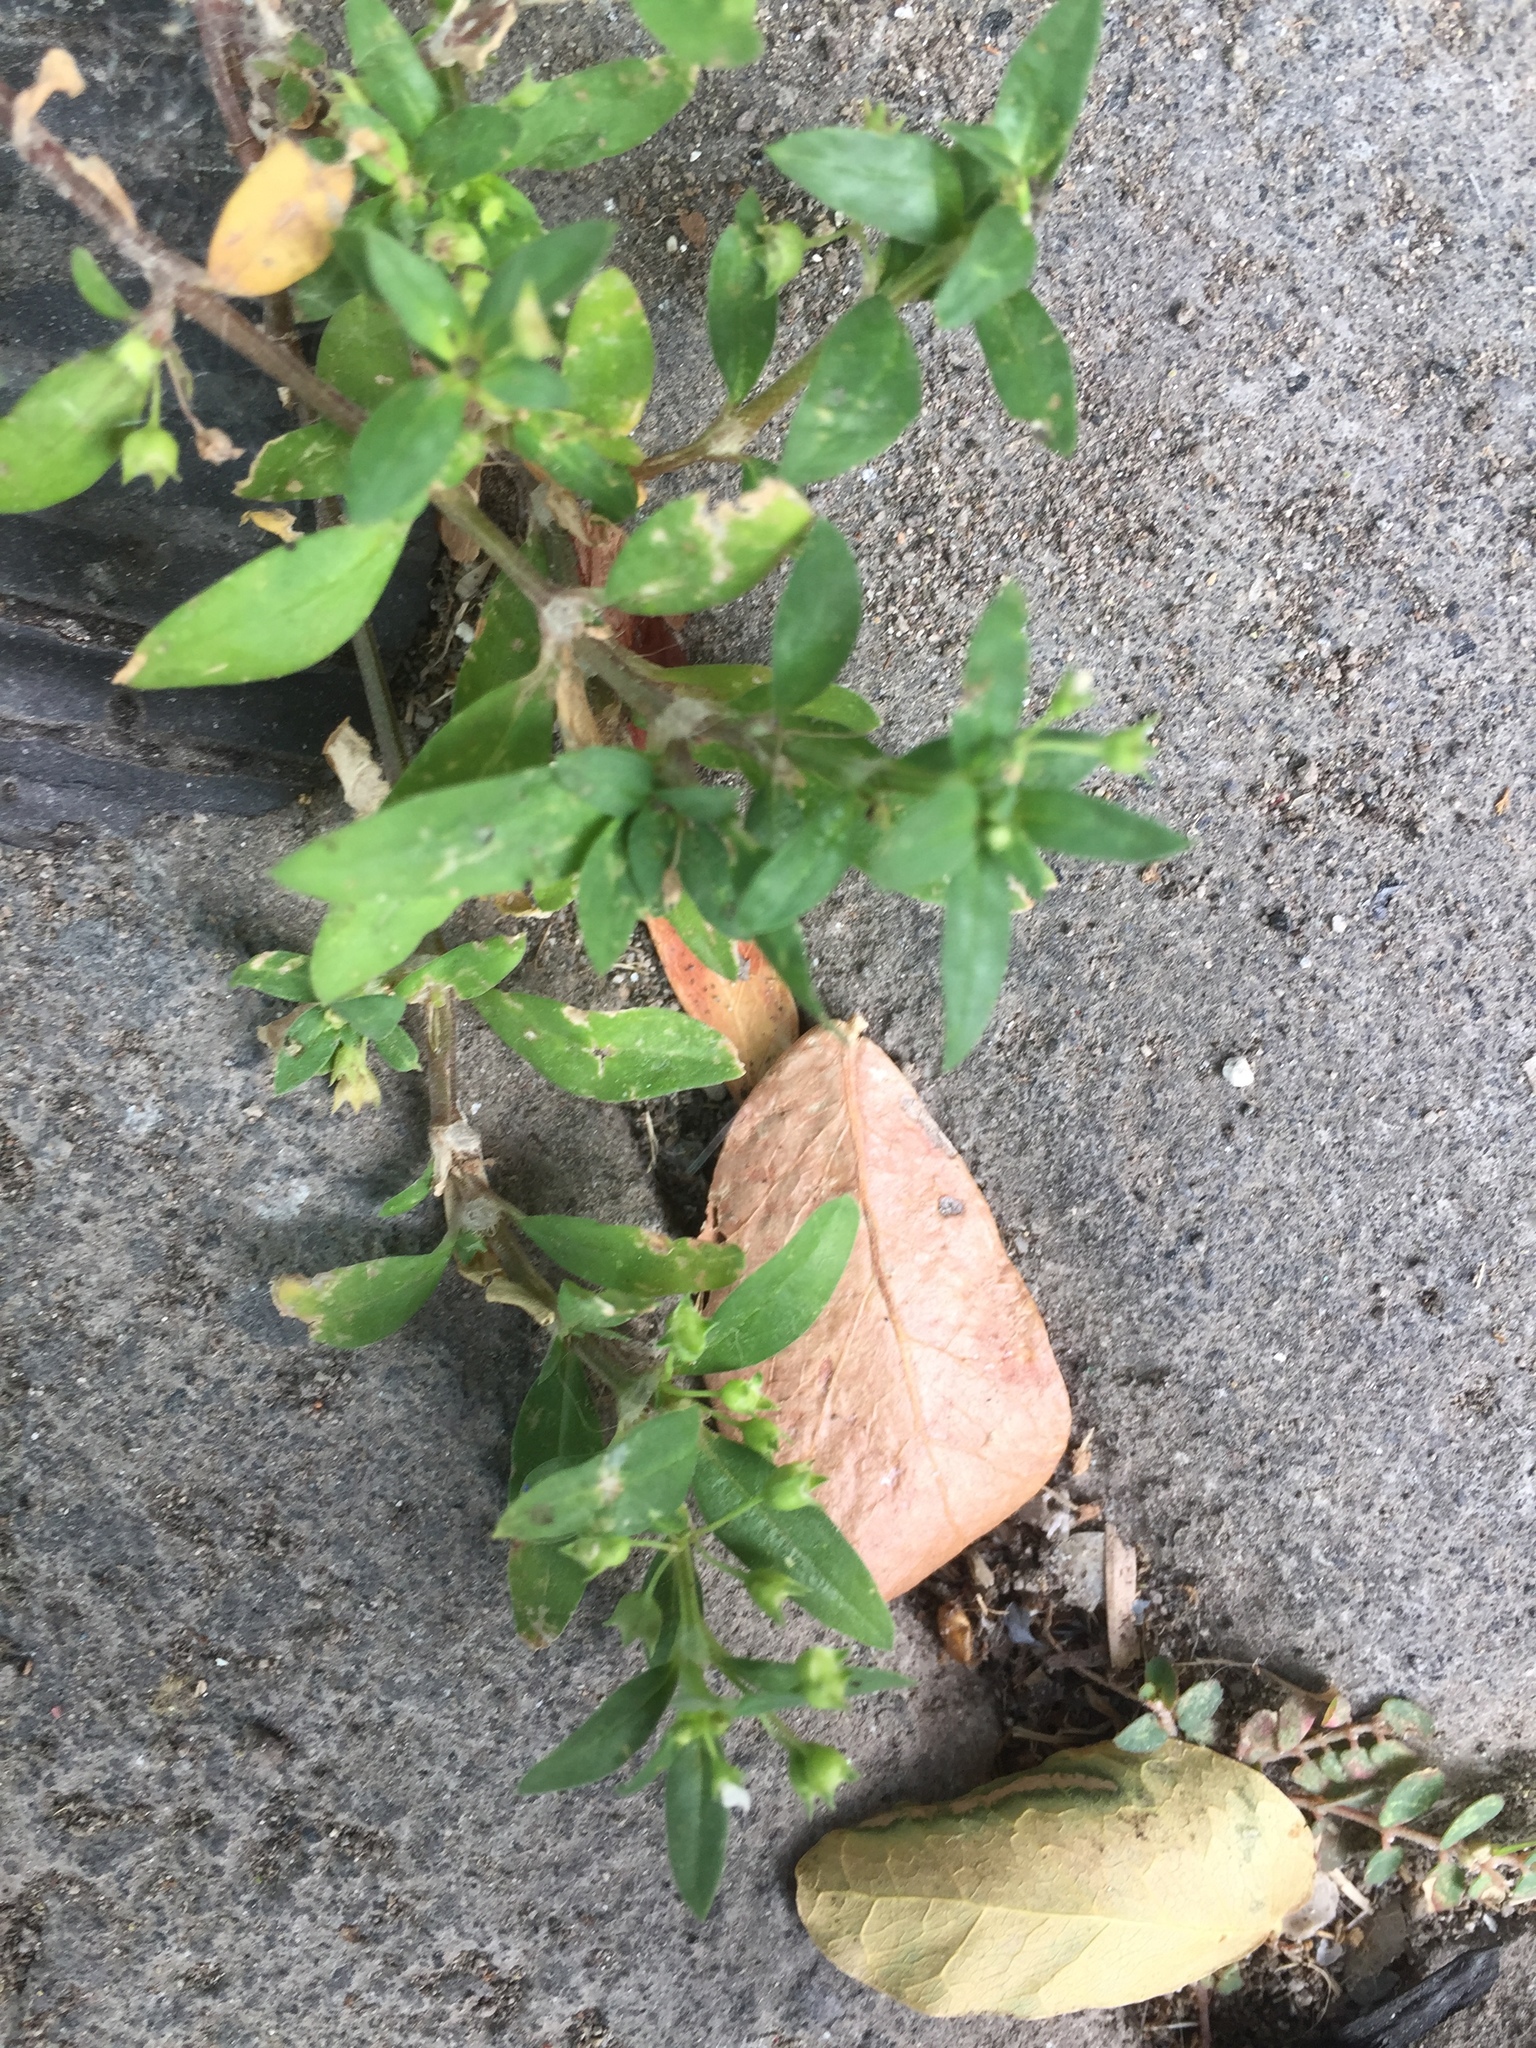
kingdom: Plantae
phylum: Tracheophyta
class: Magnoliopsida
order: Gentianales
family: Rubiaceae
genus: Oldenlandia
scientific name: Oldenlandia corymbosa
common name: Flat-top mille graines
